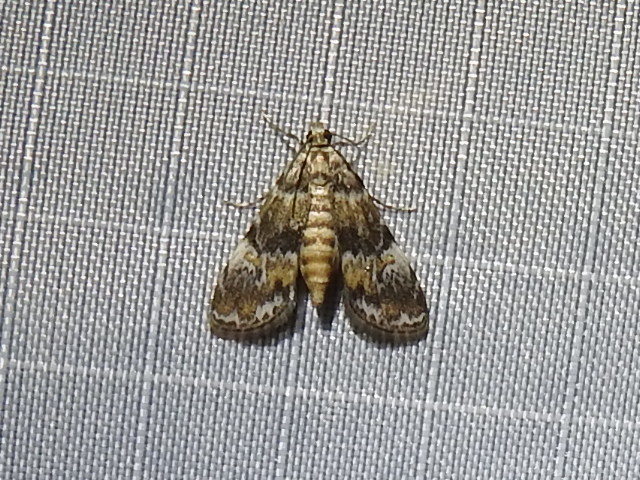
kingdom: Animalia
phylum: Arthropoda
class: Insecta
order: Lepidoptera
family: Crambidae
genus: Elophila
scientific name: Elophila obliteralis
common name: Waterlily leafcutter moth
